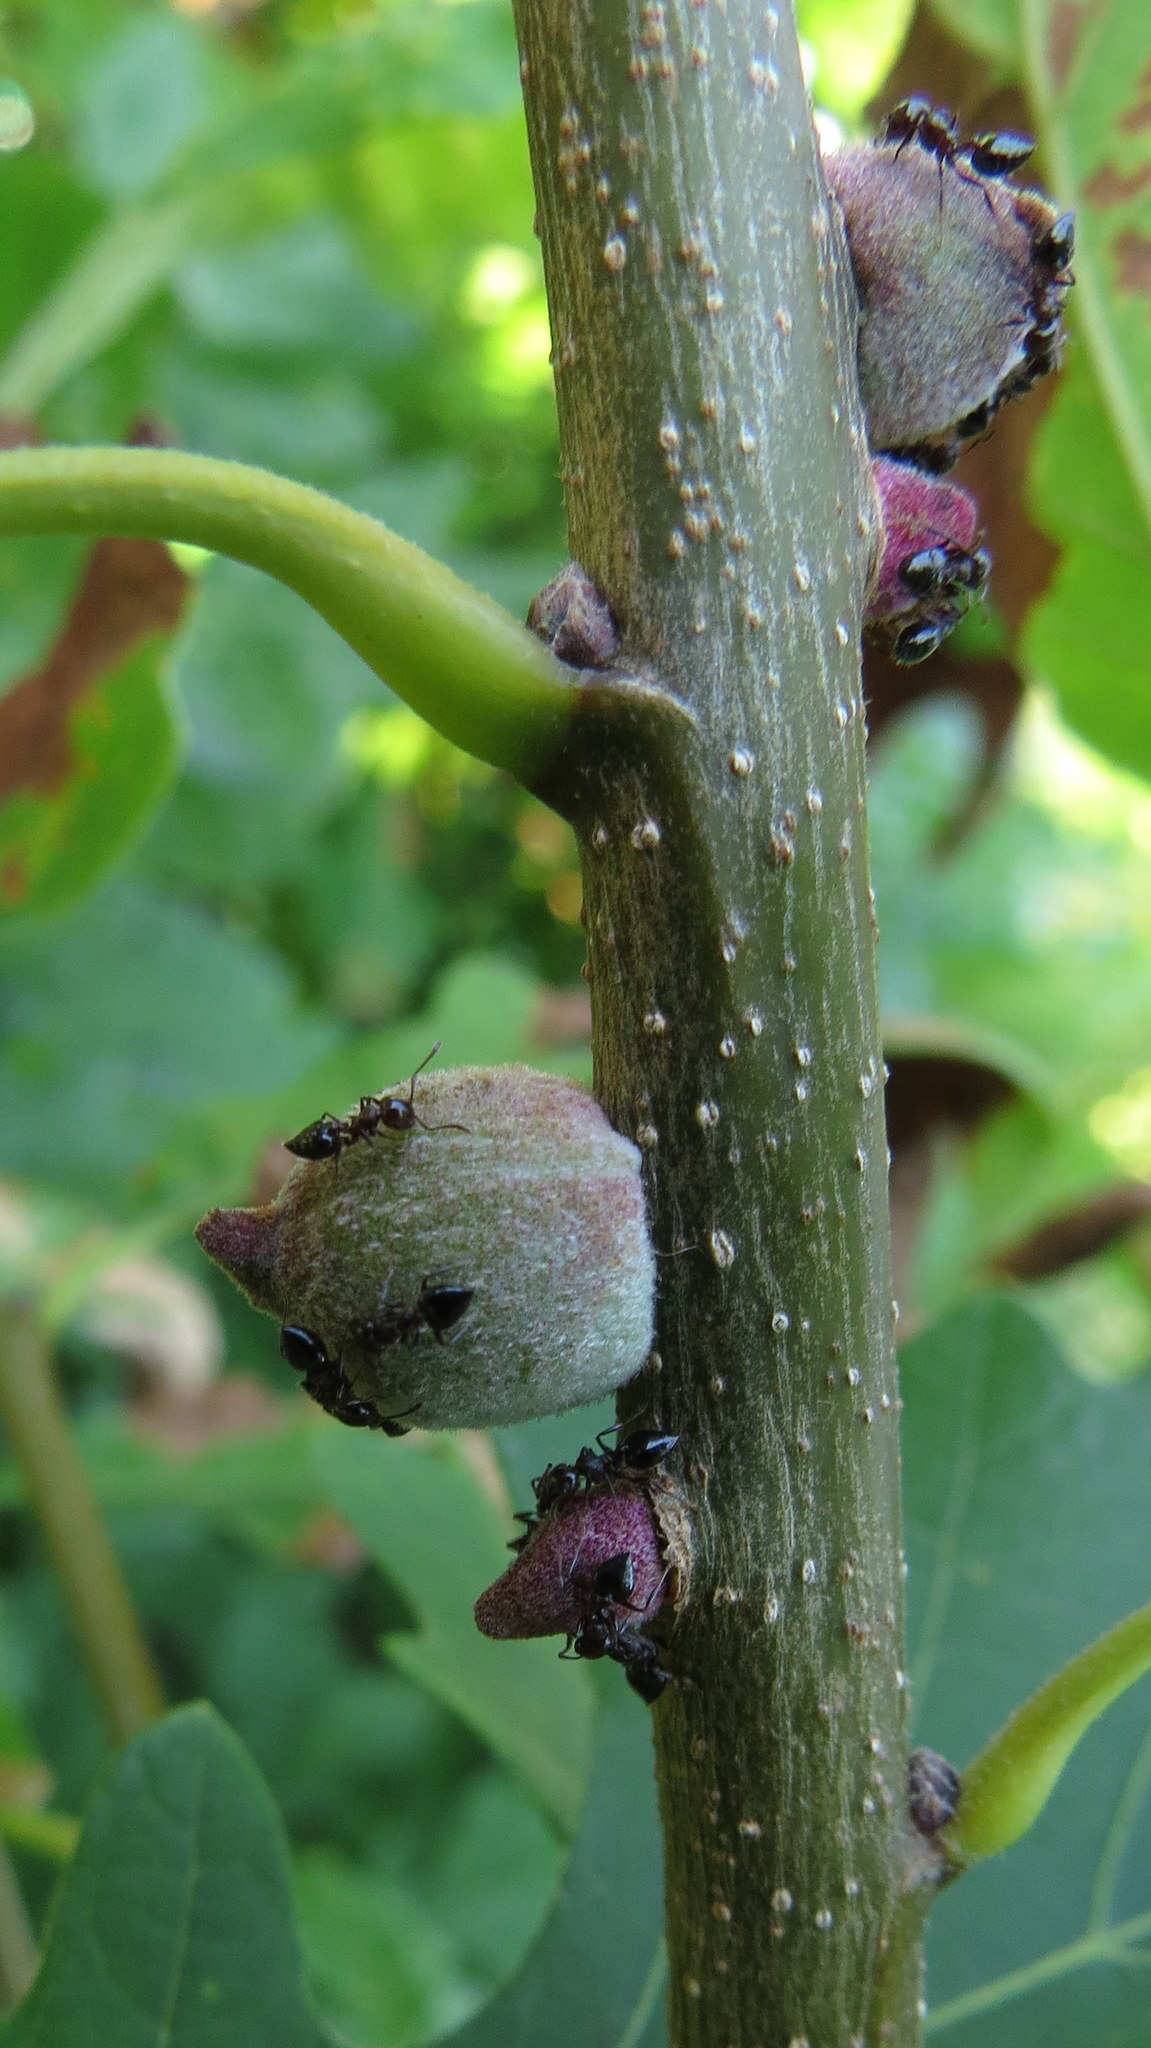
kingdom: Animalia
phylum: Arthropoda
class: Insecta
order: Hymenoptera
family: Cynipidae
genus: Disholcaspis
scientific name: Disholcaspis
